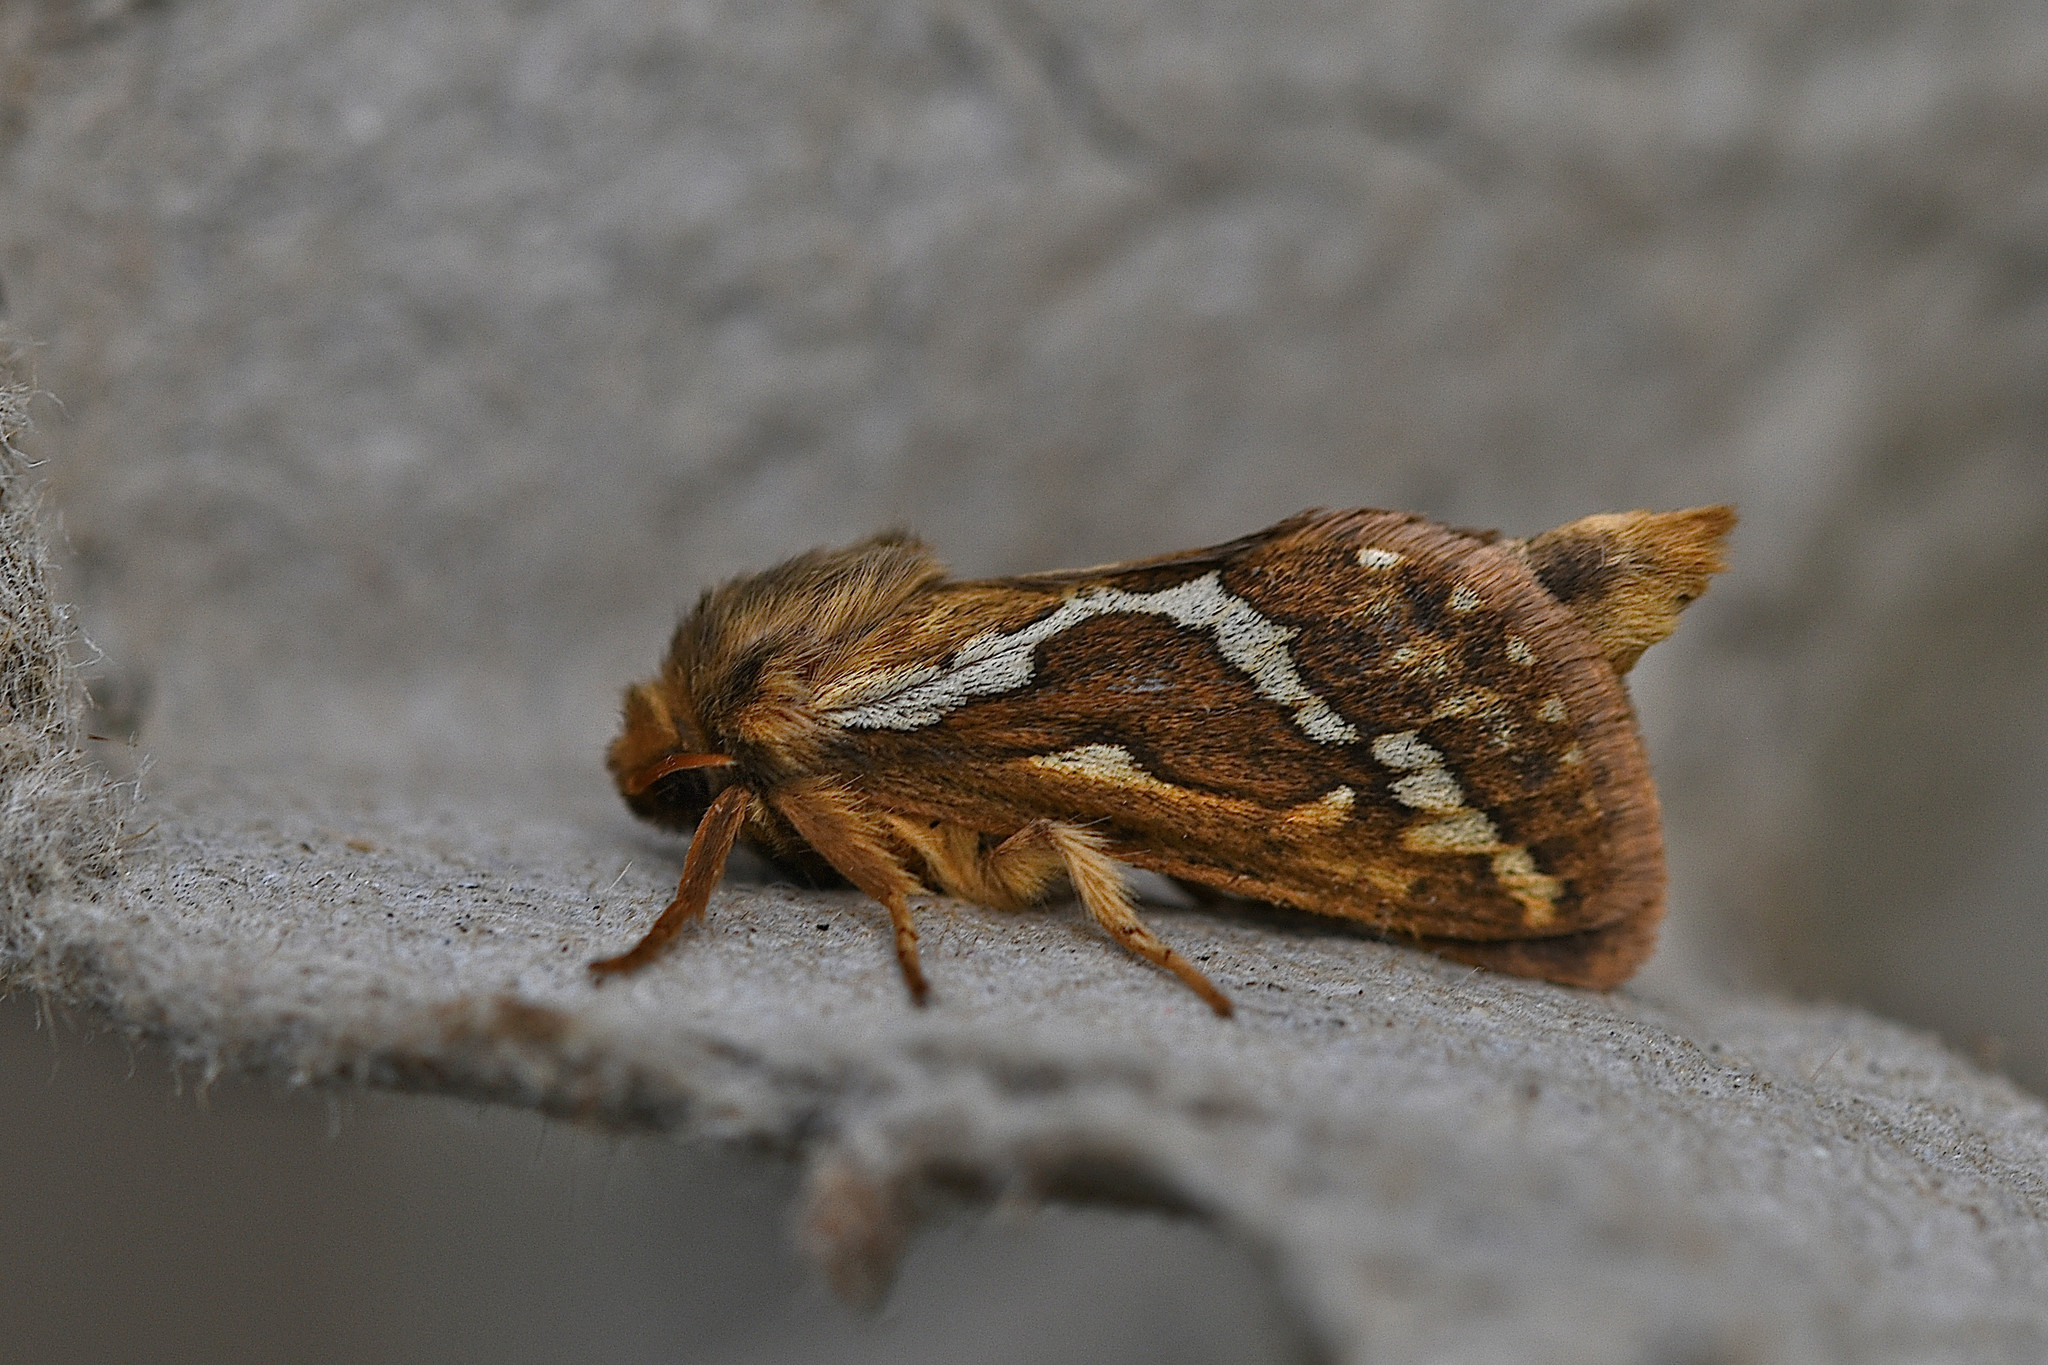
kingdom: Animalia
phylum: Arthropoda
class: Insecta
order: Lepidoptera
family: Hepialidae
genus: Korscheltellus
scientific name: Korscheltellus lupulina
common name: Common swift
